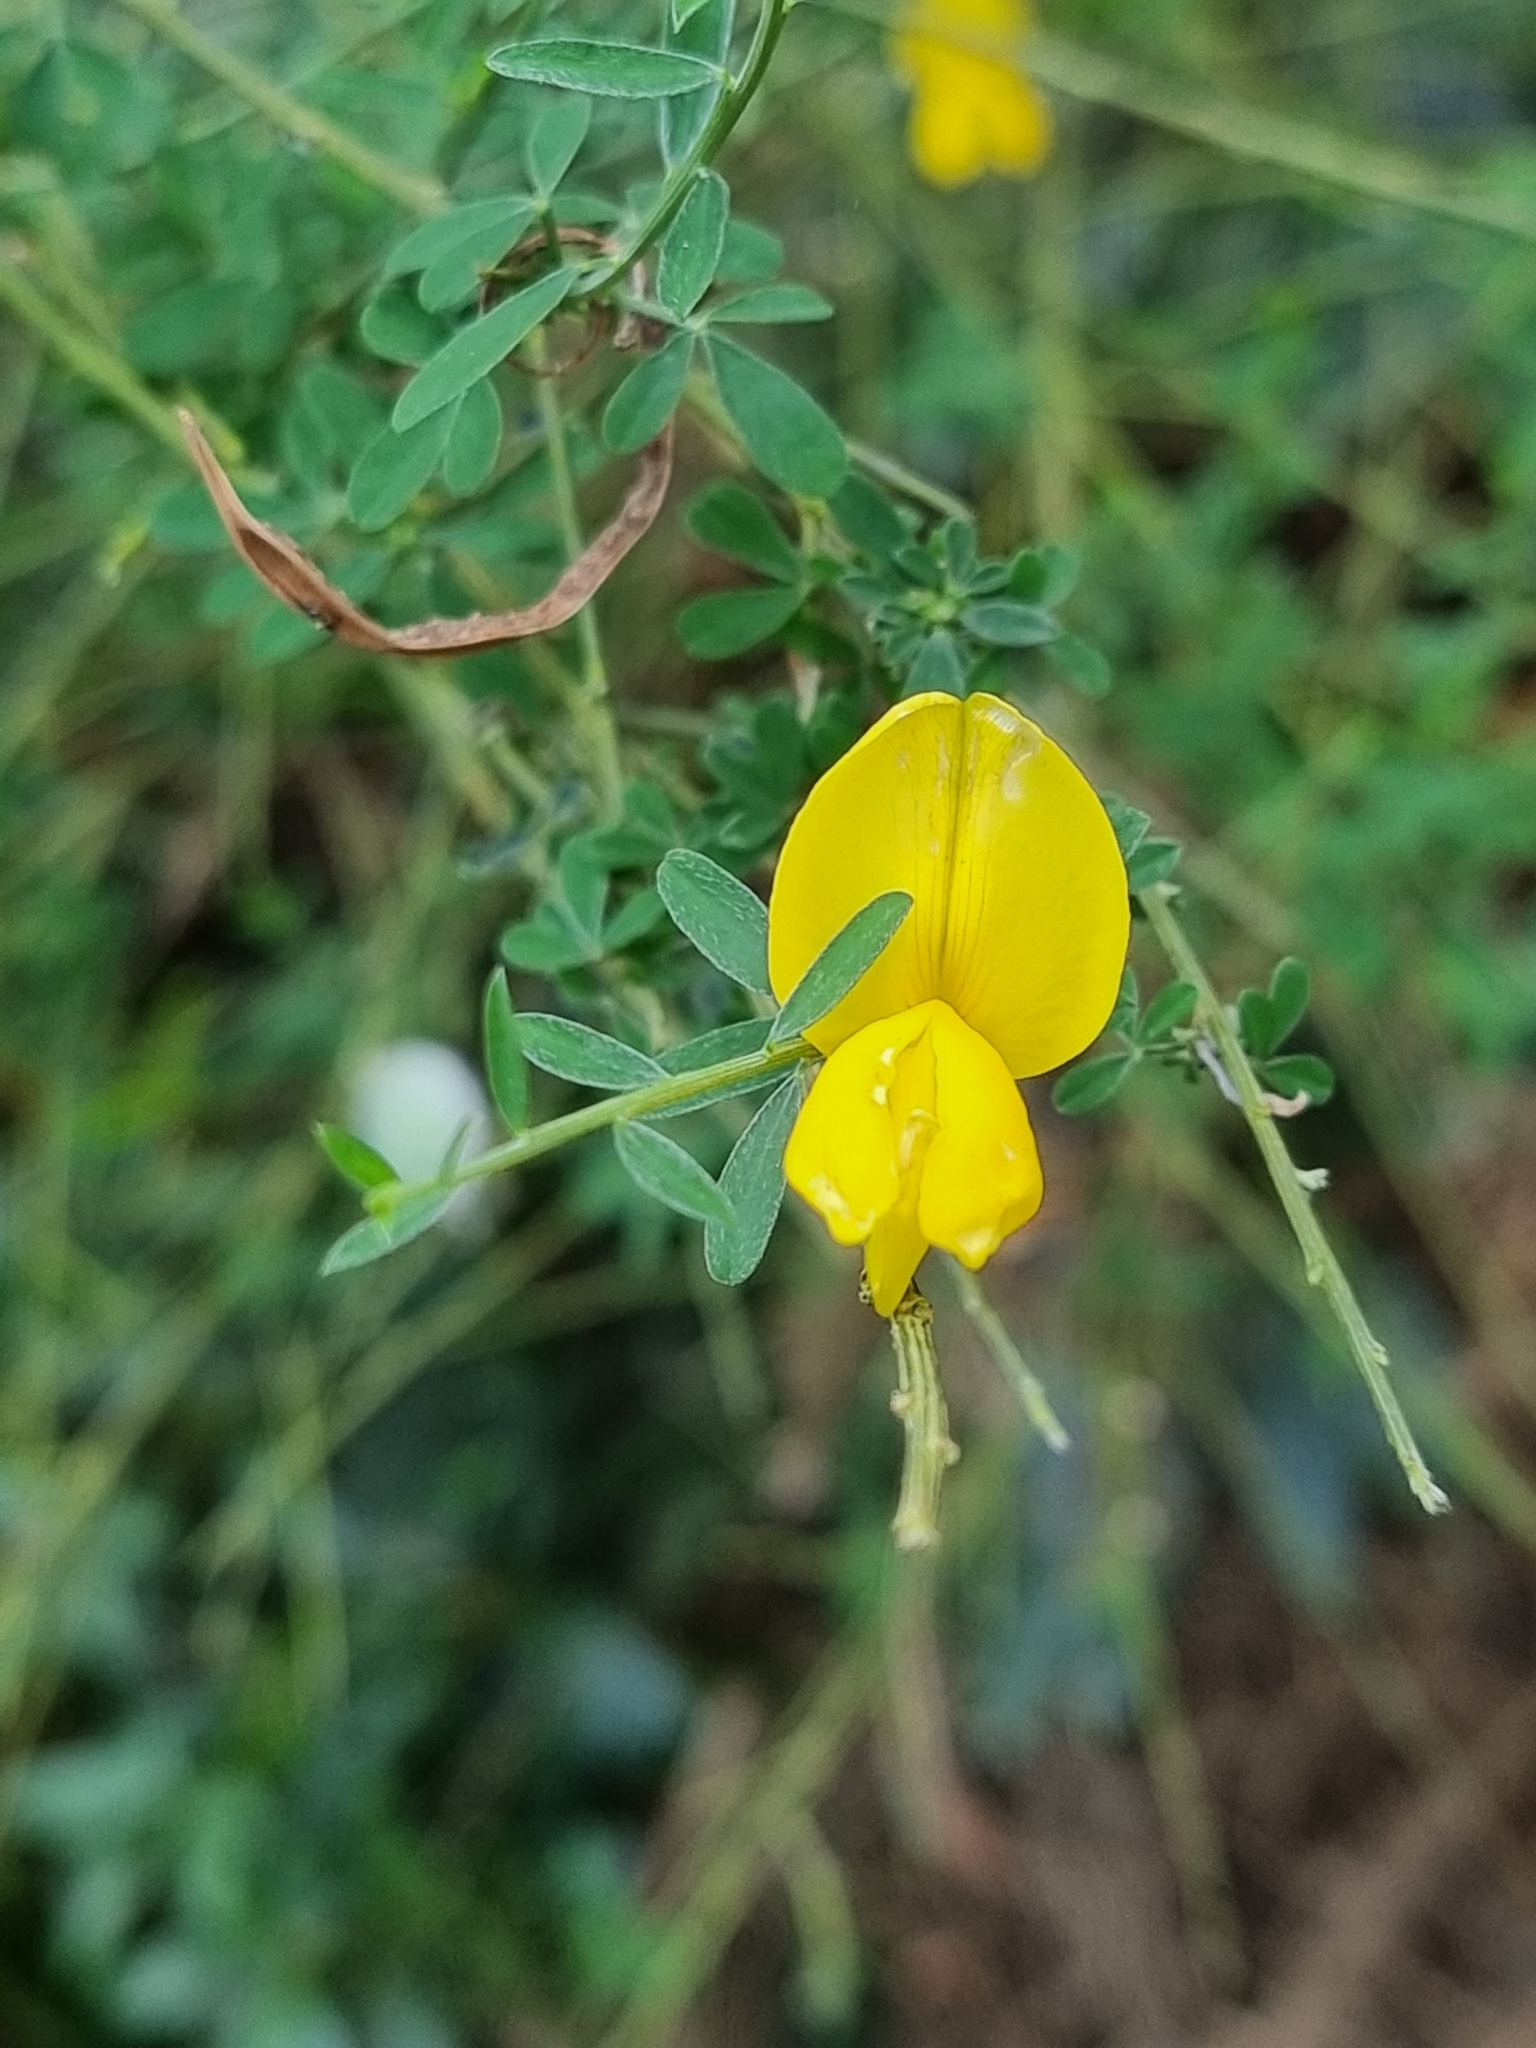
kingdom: Plantae
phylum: Tracheophyta
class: Magnoliopsida
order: Fabales
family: Fabaceae
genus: Cytisus
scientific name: Cytisus striatus
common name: Hairy-fruited broom
